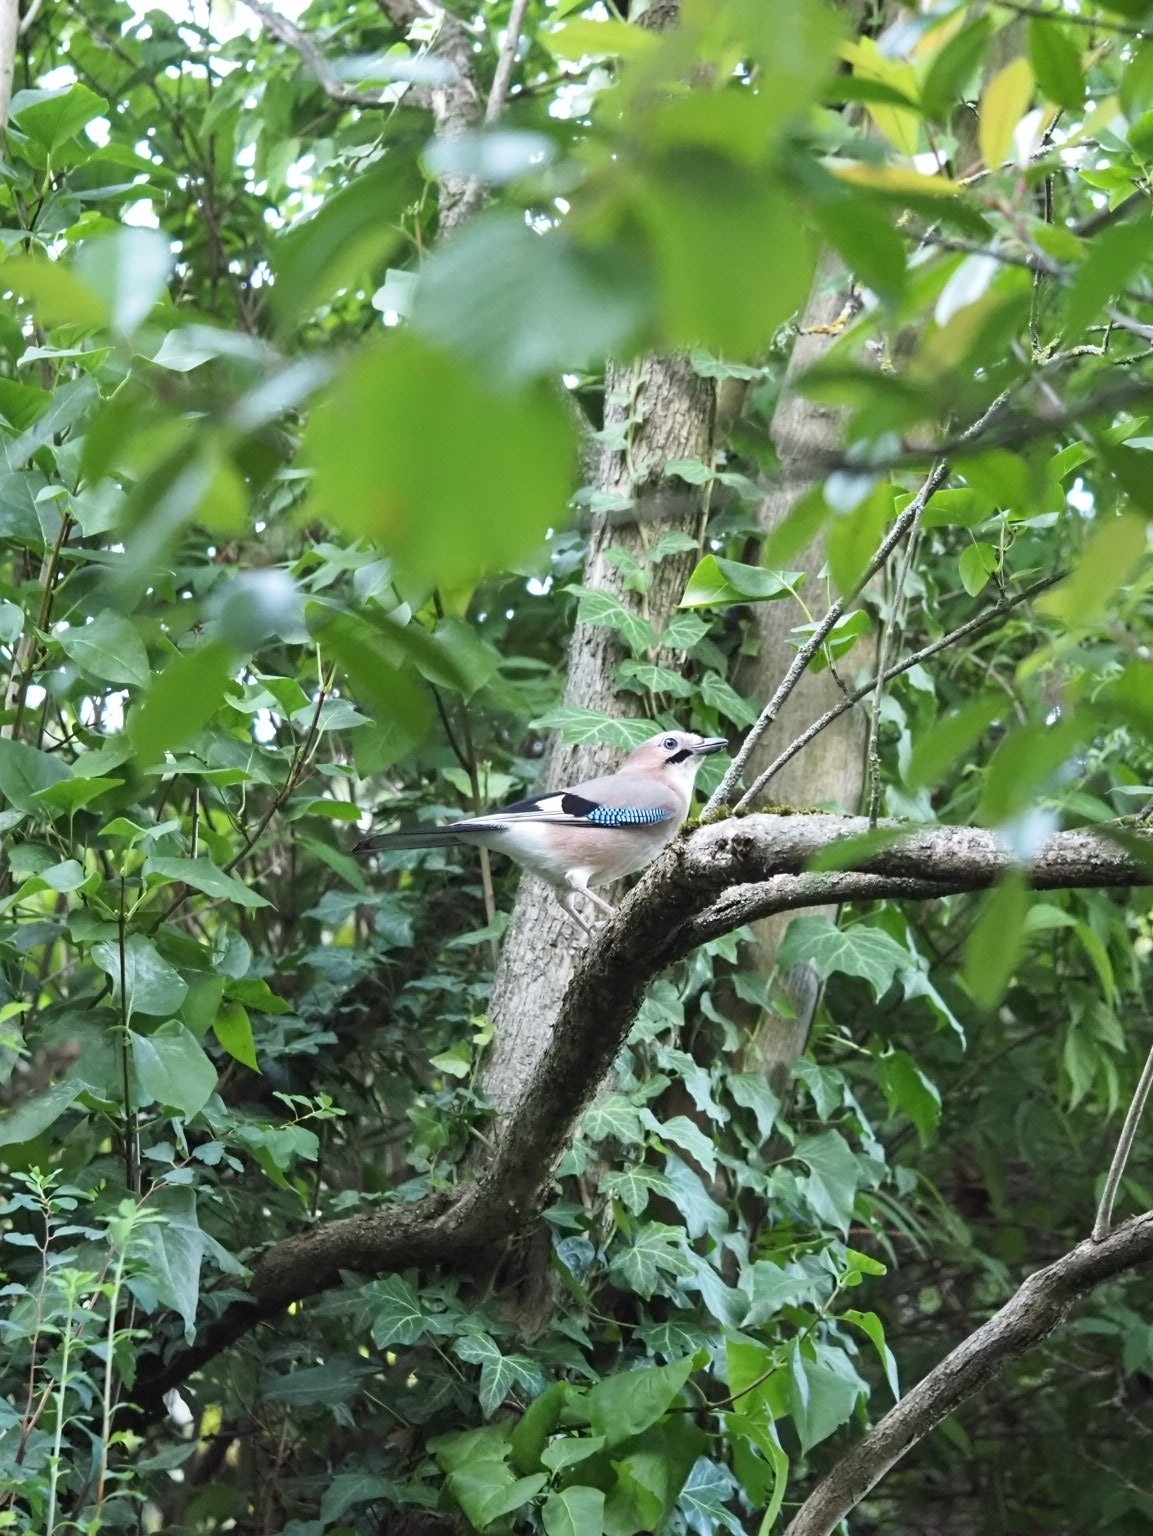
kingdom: Animalia
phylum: Chordata
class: Aves
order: Passeriformes
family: Corvidae
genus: Garrulus
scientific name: Garrulus glandarius
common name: Eurasian jay
